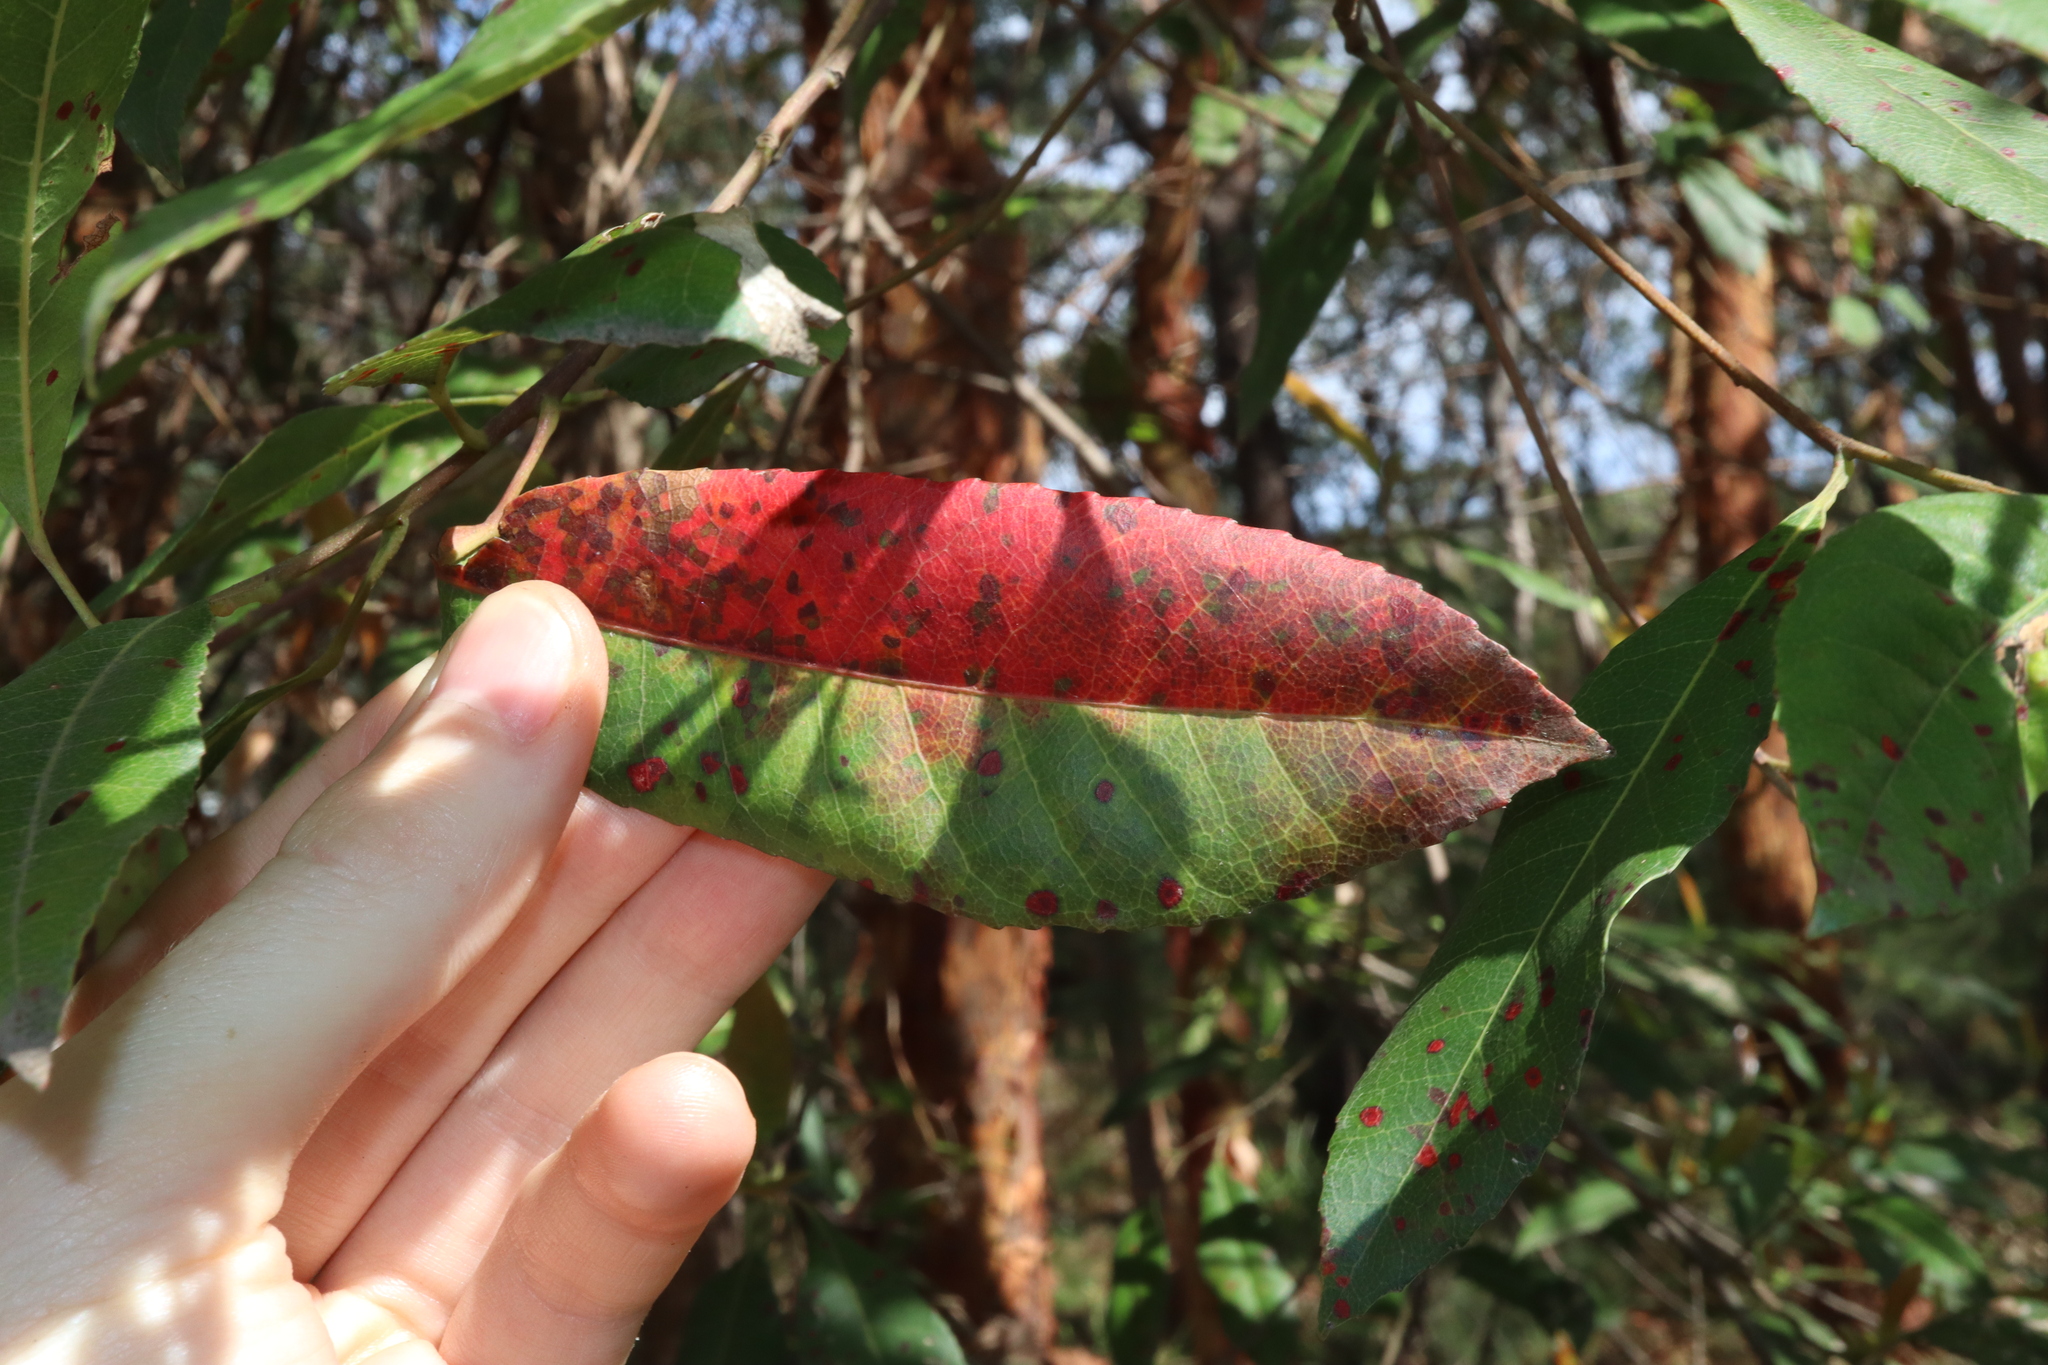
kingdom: Plantae
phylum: Tracheophyta
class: Magnoliopsida
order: Oxalidales
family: Elaeocarpaceae
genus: Elaeocarpus
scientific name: Elaeocarpus reticulatus
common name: Ash quandong
